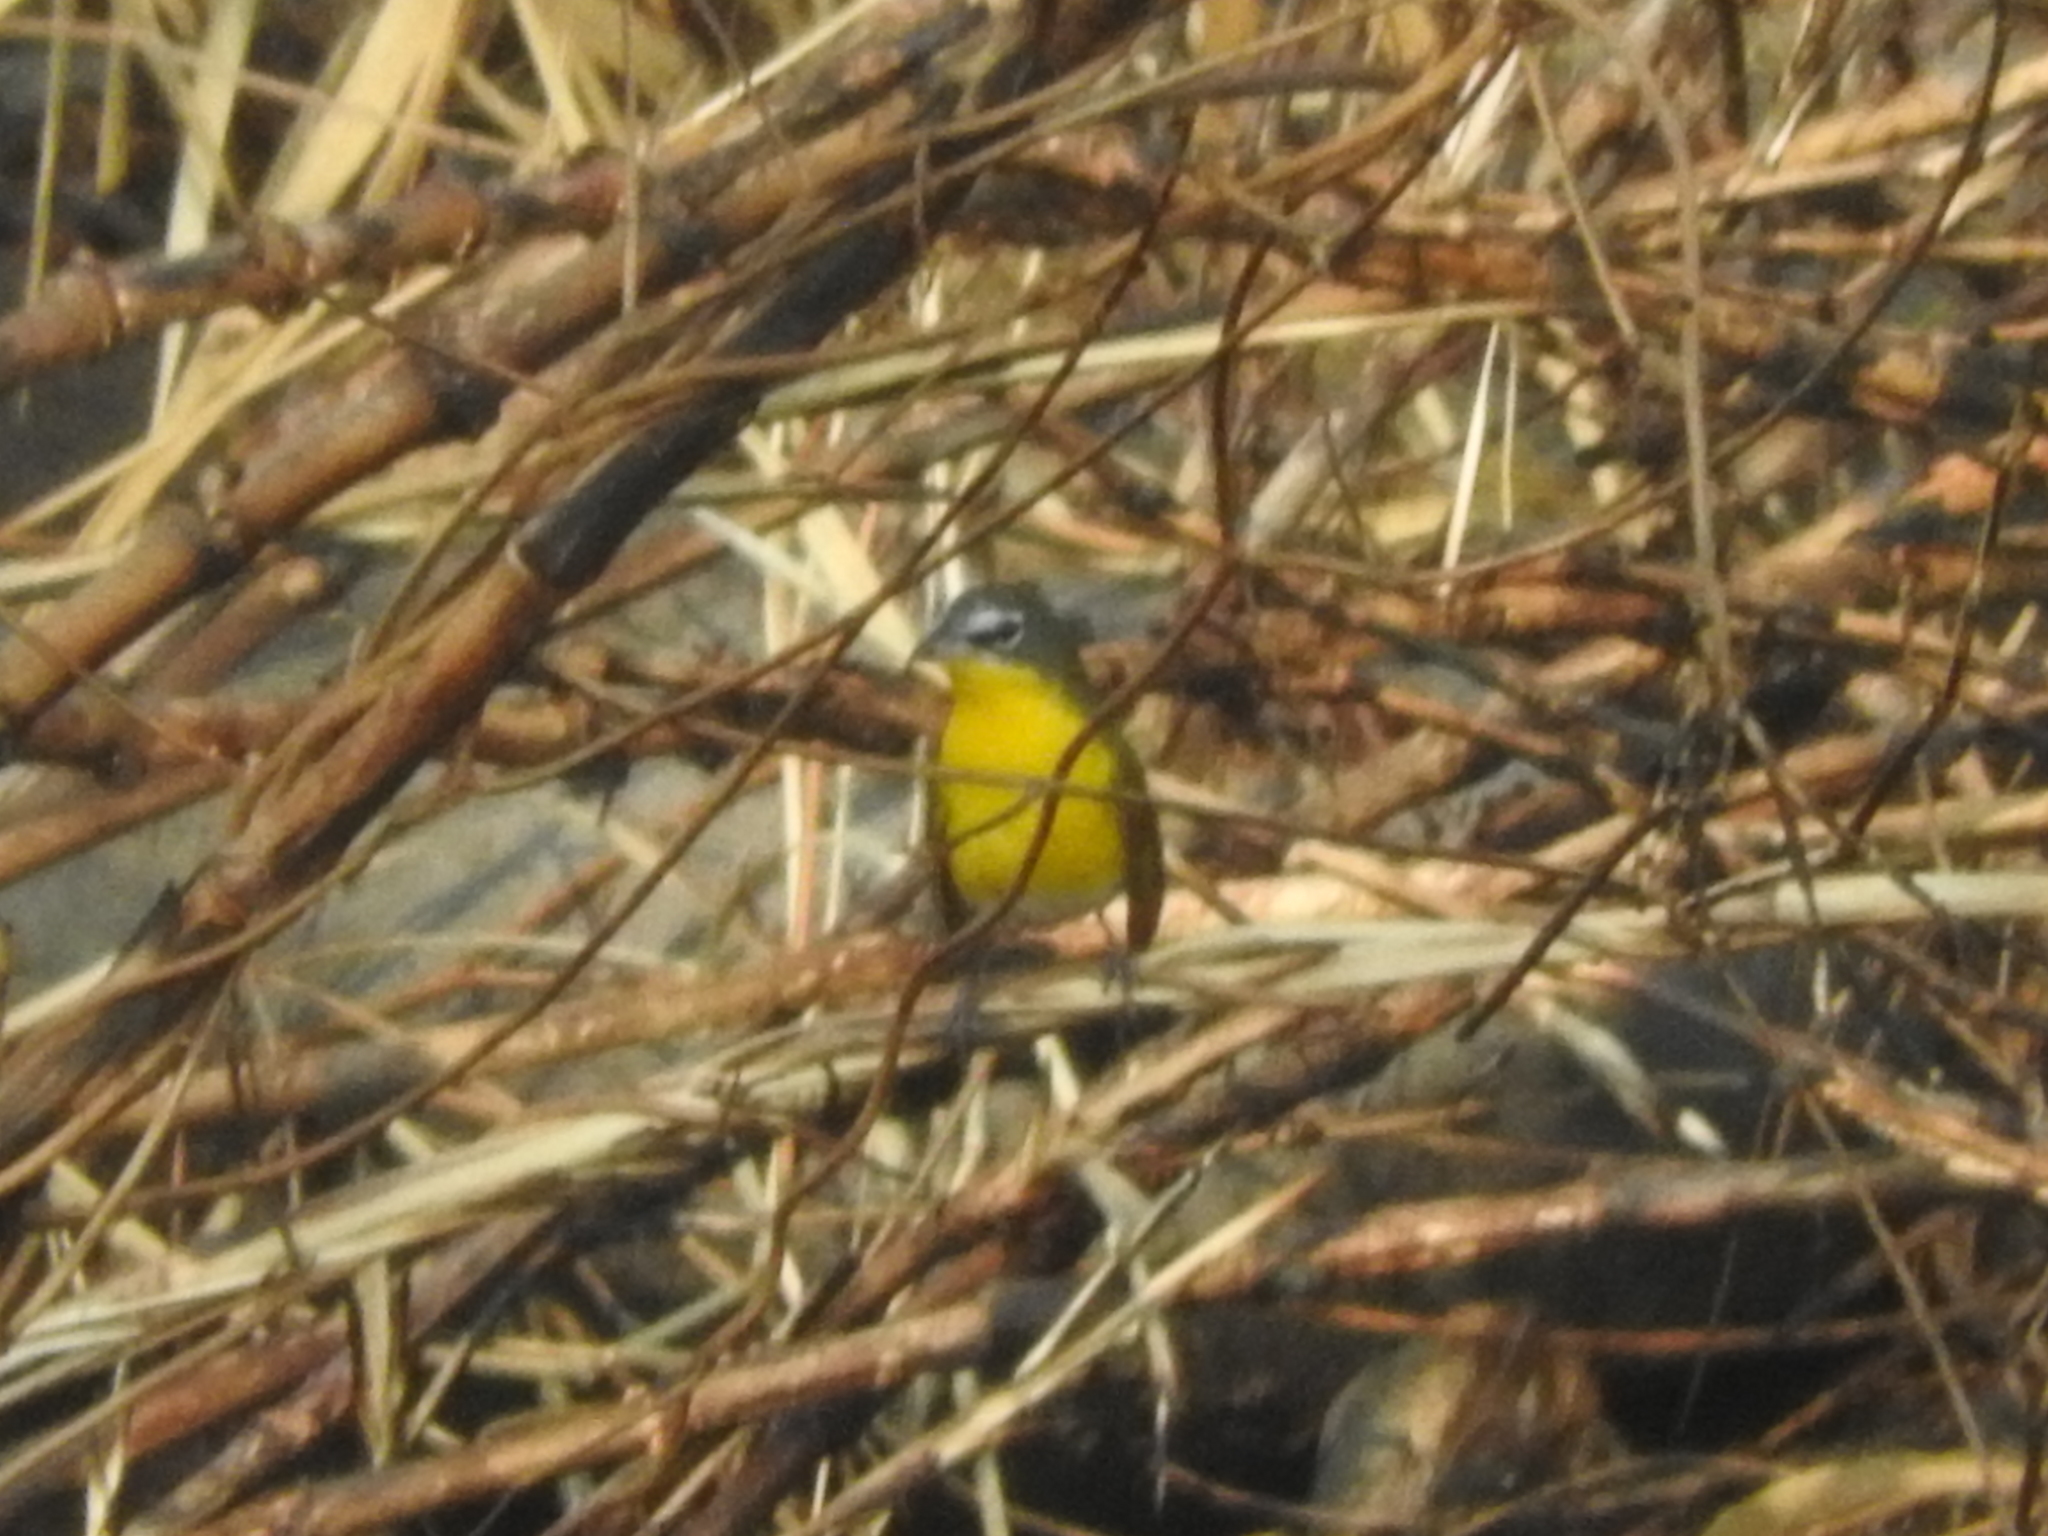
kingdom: Animalia
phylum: Chordata
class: Aves
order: Passeriformes
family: Parulidae
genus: Icteria
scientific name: Icteria virens
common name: Yellow-breasted chat
